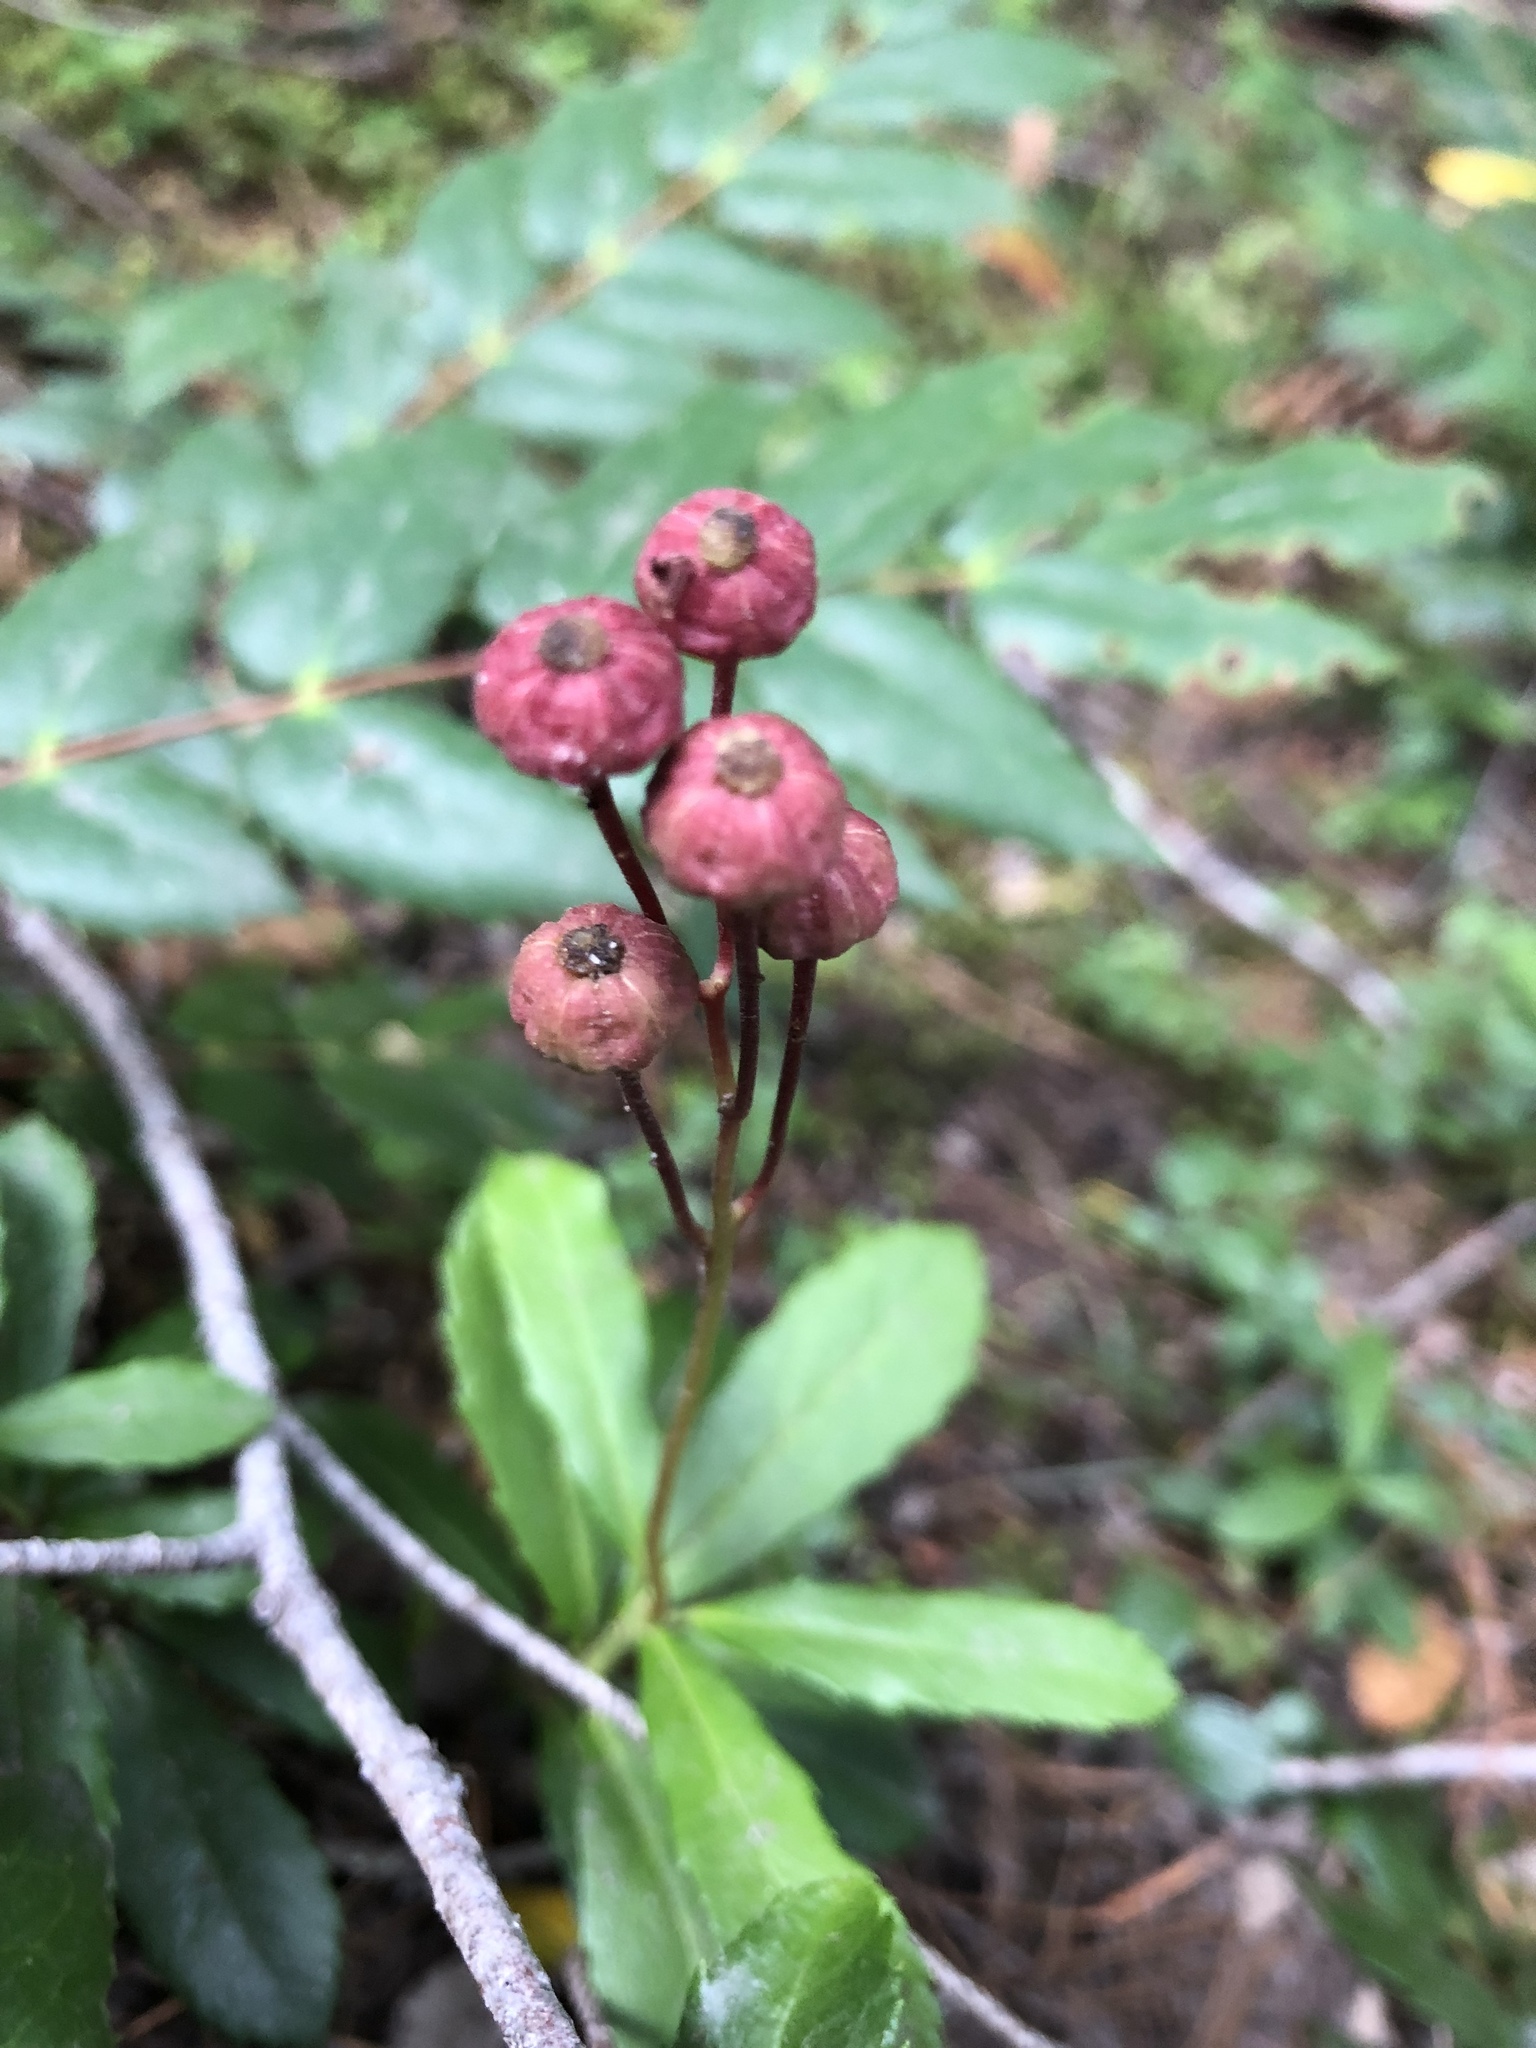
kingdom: Plantae
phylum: Tracheophyta
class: Magnoliopsida
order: Ericales
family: Ericaceae
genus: Chimaphila
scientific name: Chimaphila umbellata
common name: Pipsissewa
